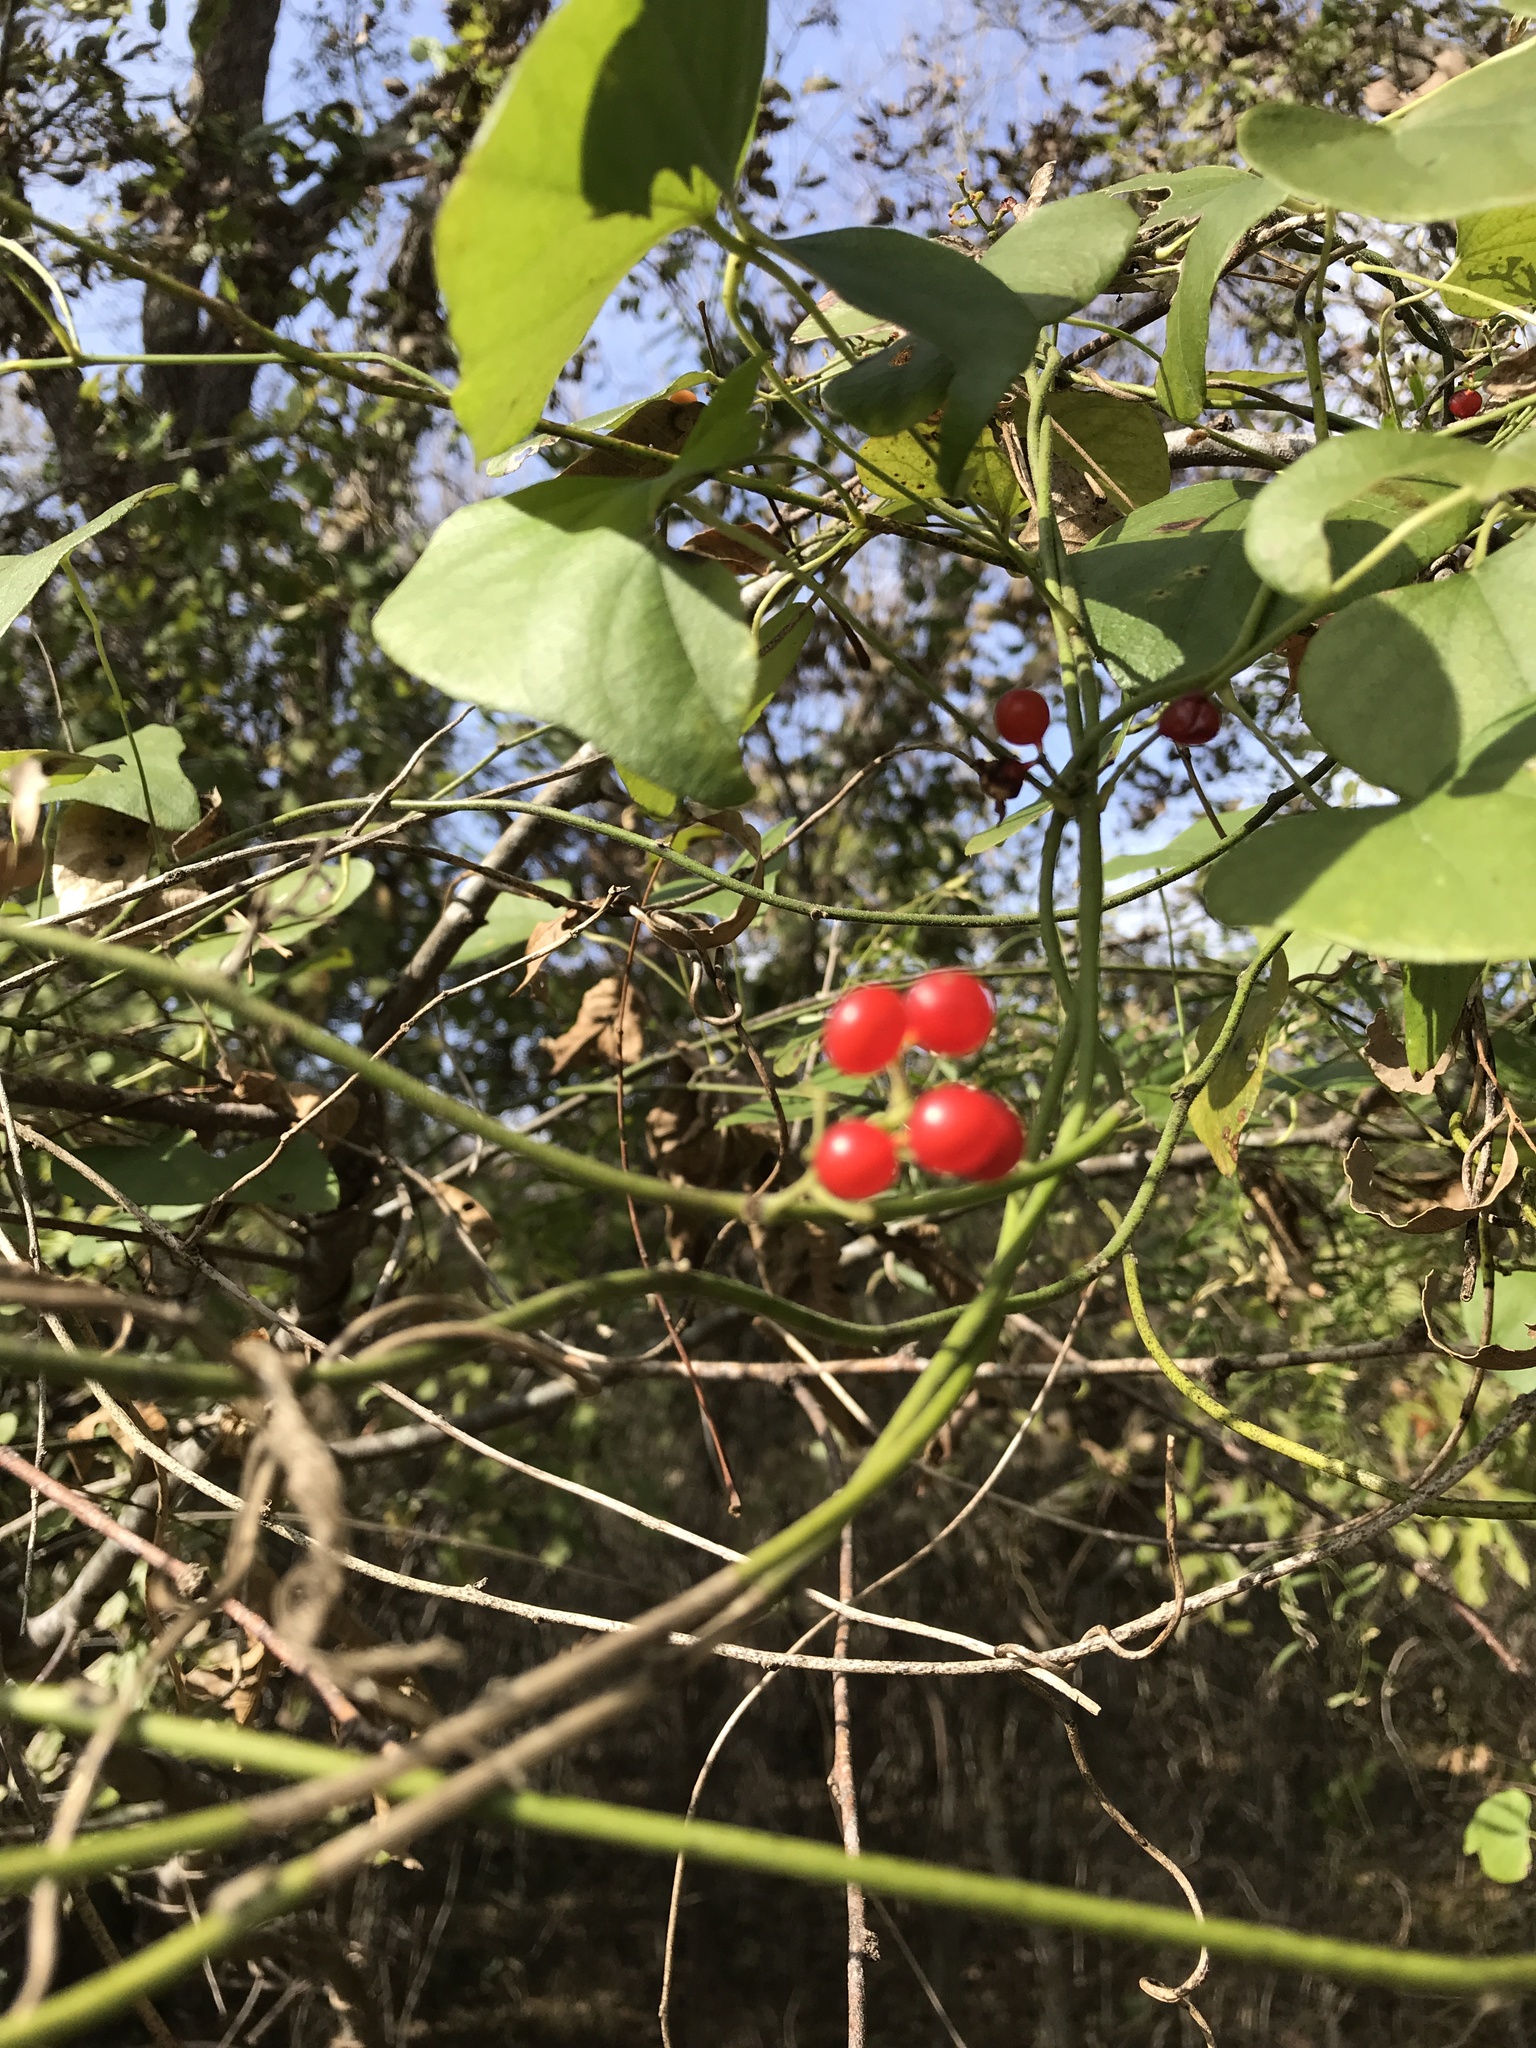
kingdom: Plantae
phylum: Tracheophyta
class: Magnoliopsida
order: Ranunculales
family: Menispermaceae
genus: Cocculus
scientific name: Cocculus carolinus
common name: Carolina moonseed
